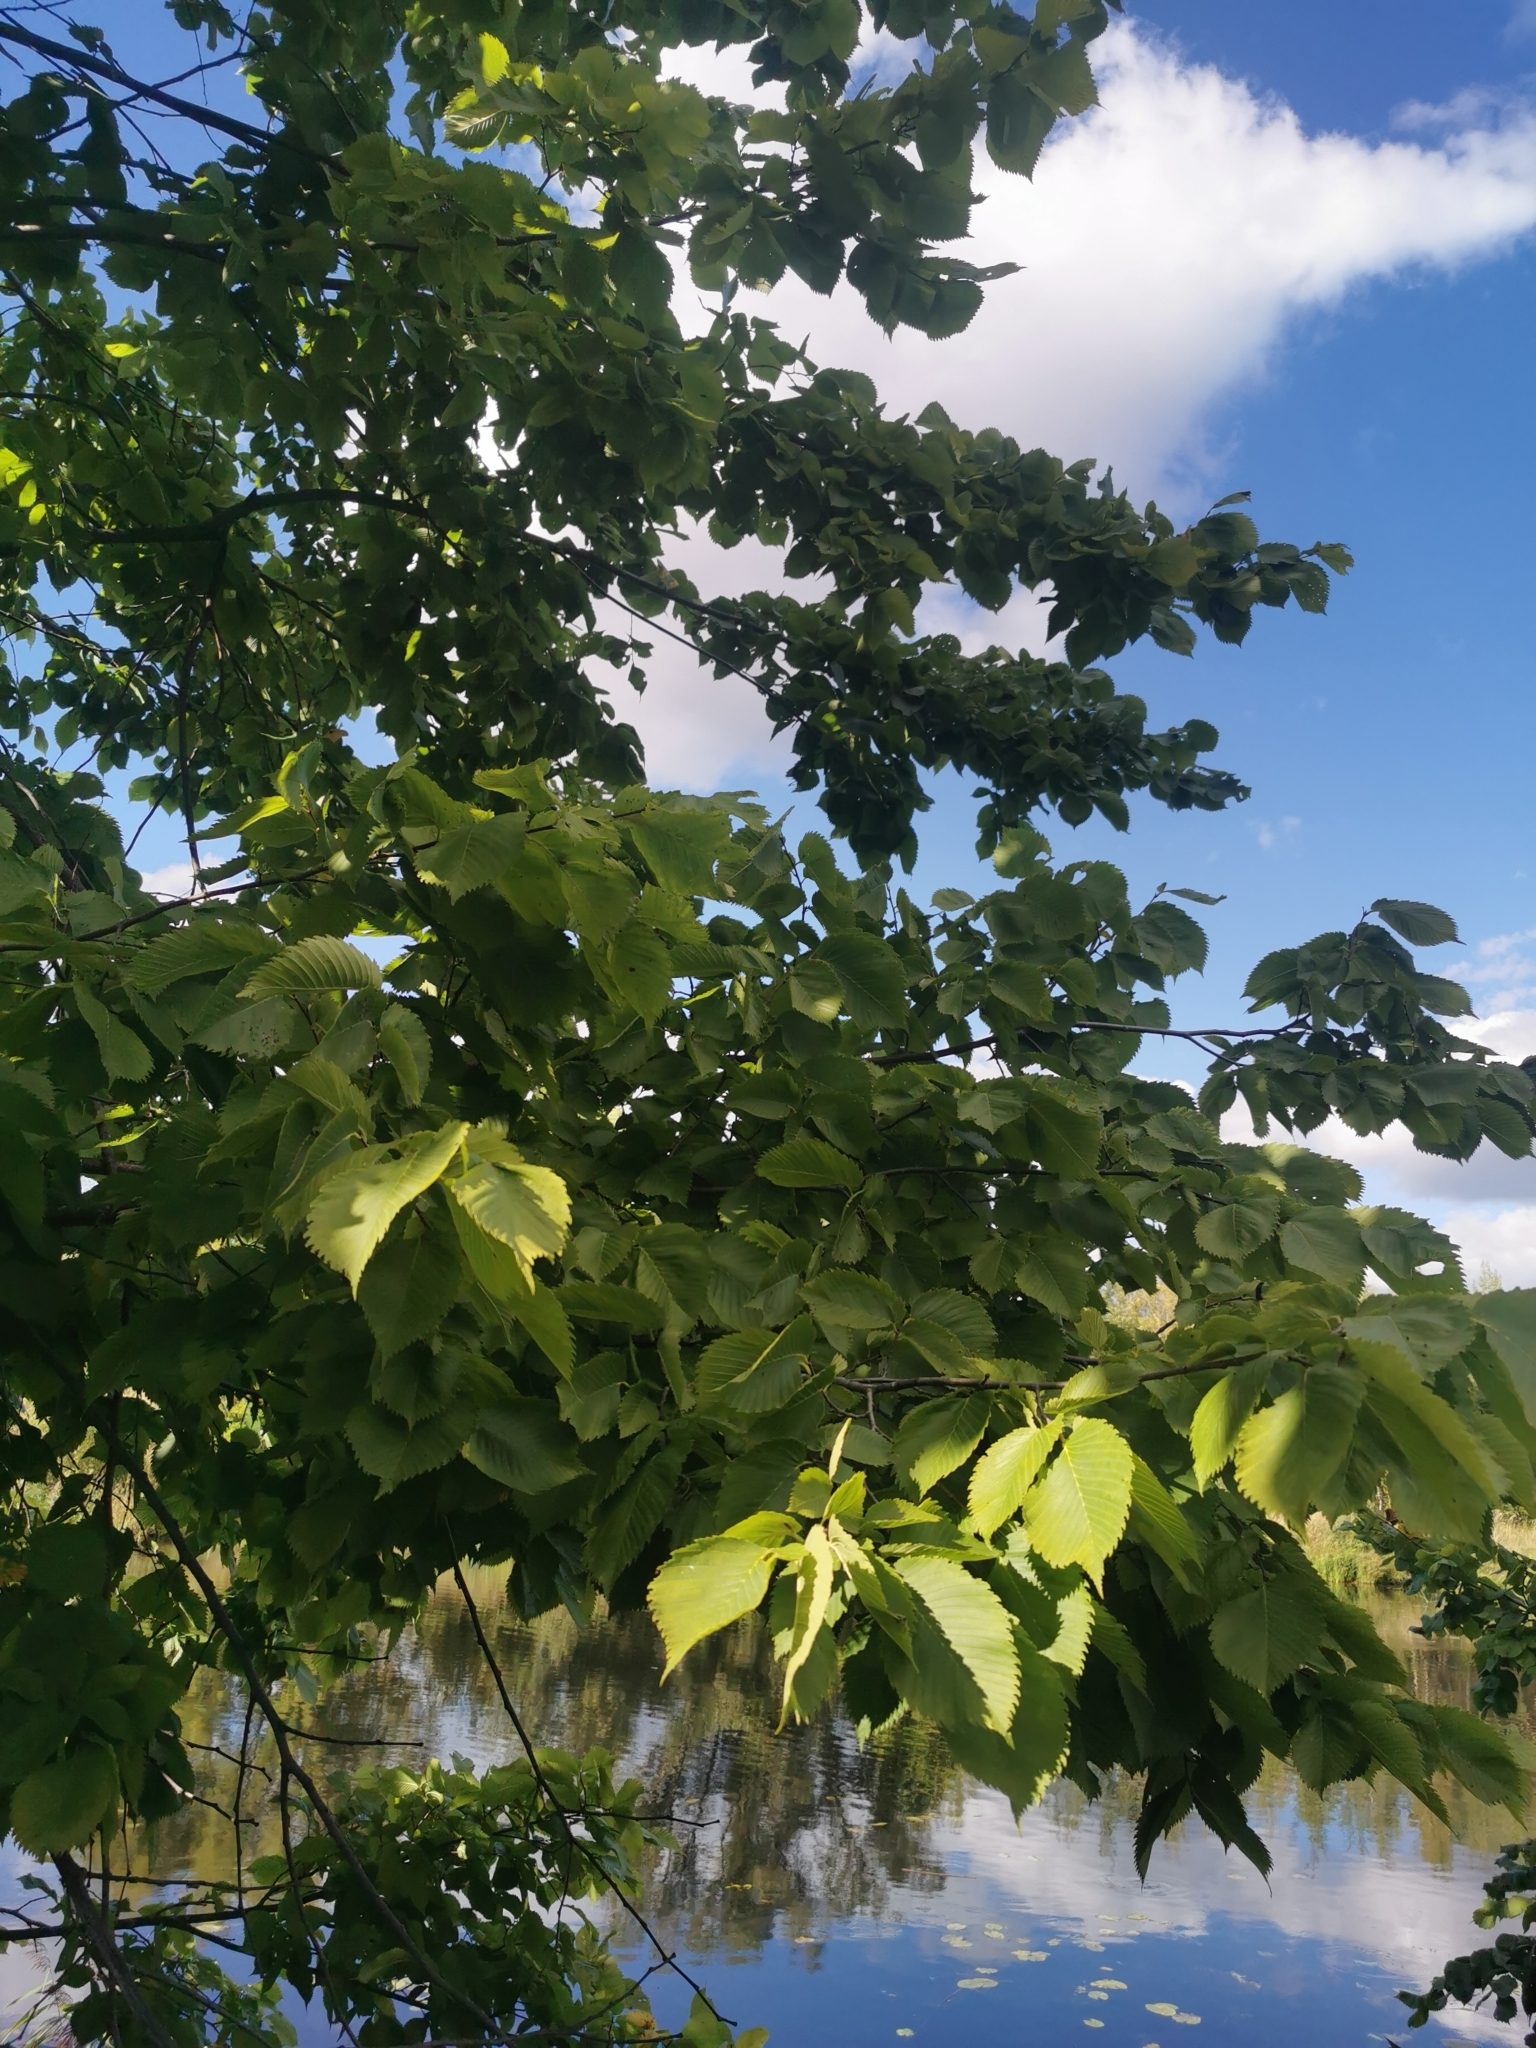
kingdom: Plantae
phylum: Tracheophyta
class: Magnoliopsida
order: Rosales
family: Ulmaceae
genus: Ulmus
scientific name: Ulmus laevis
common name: European white-elm
